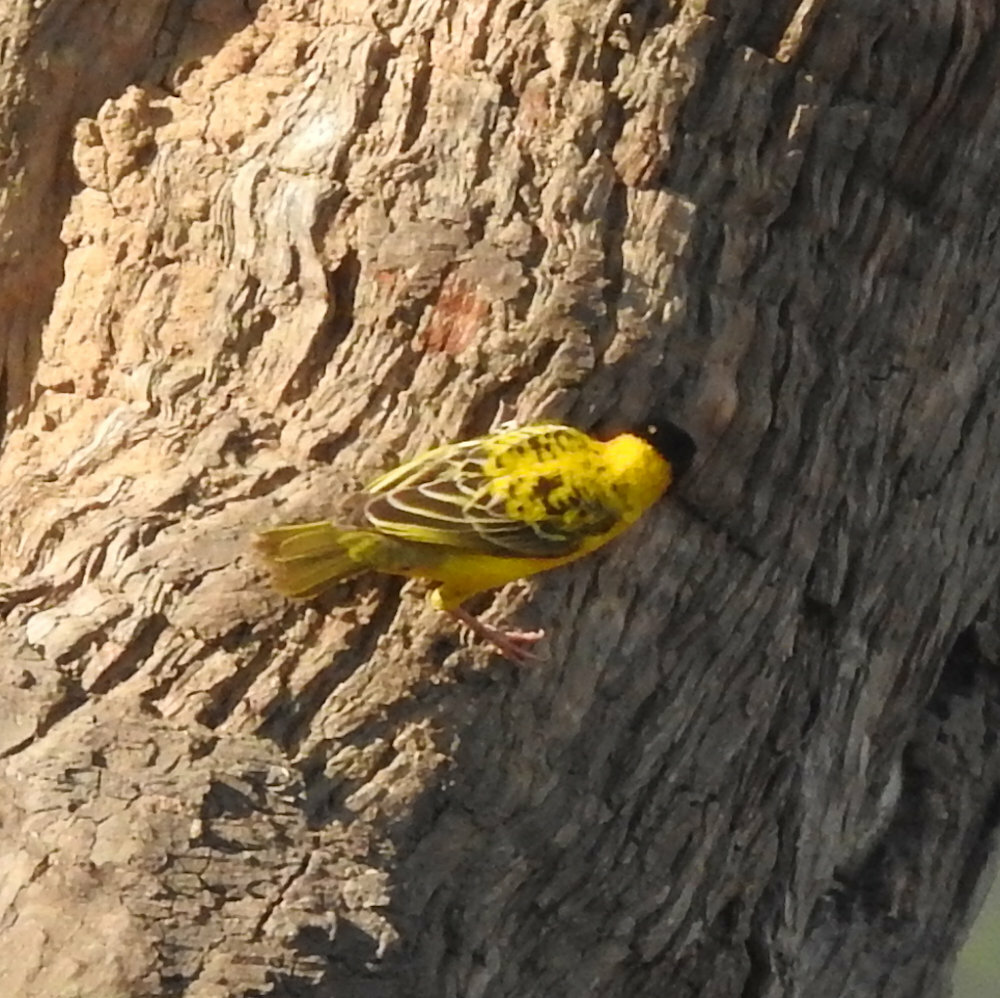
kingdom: Animalia
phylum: Chordata
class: Aves
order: Passeriformes
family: Ploceidae
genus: Ploceus
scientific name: Ploceus cucullatus
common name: Village weaver
